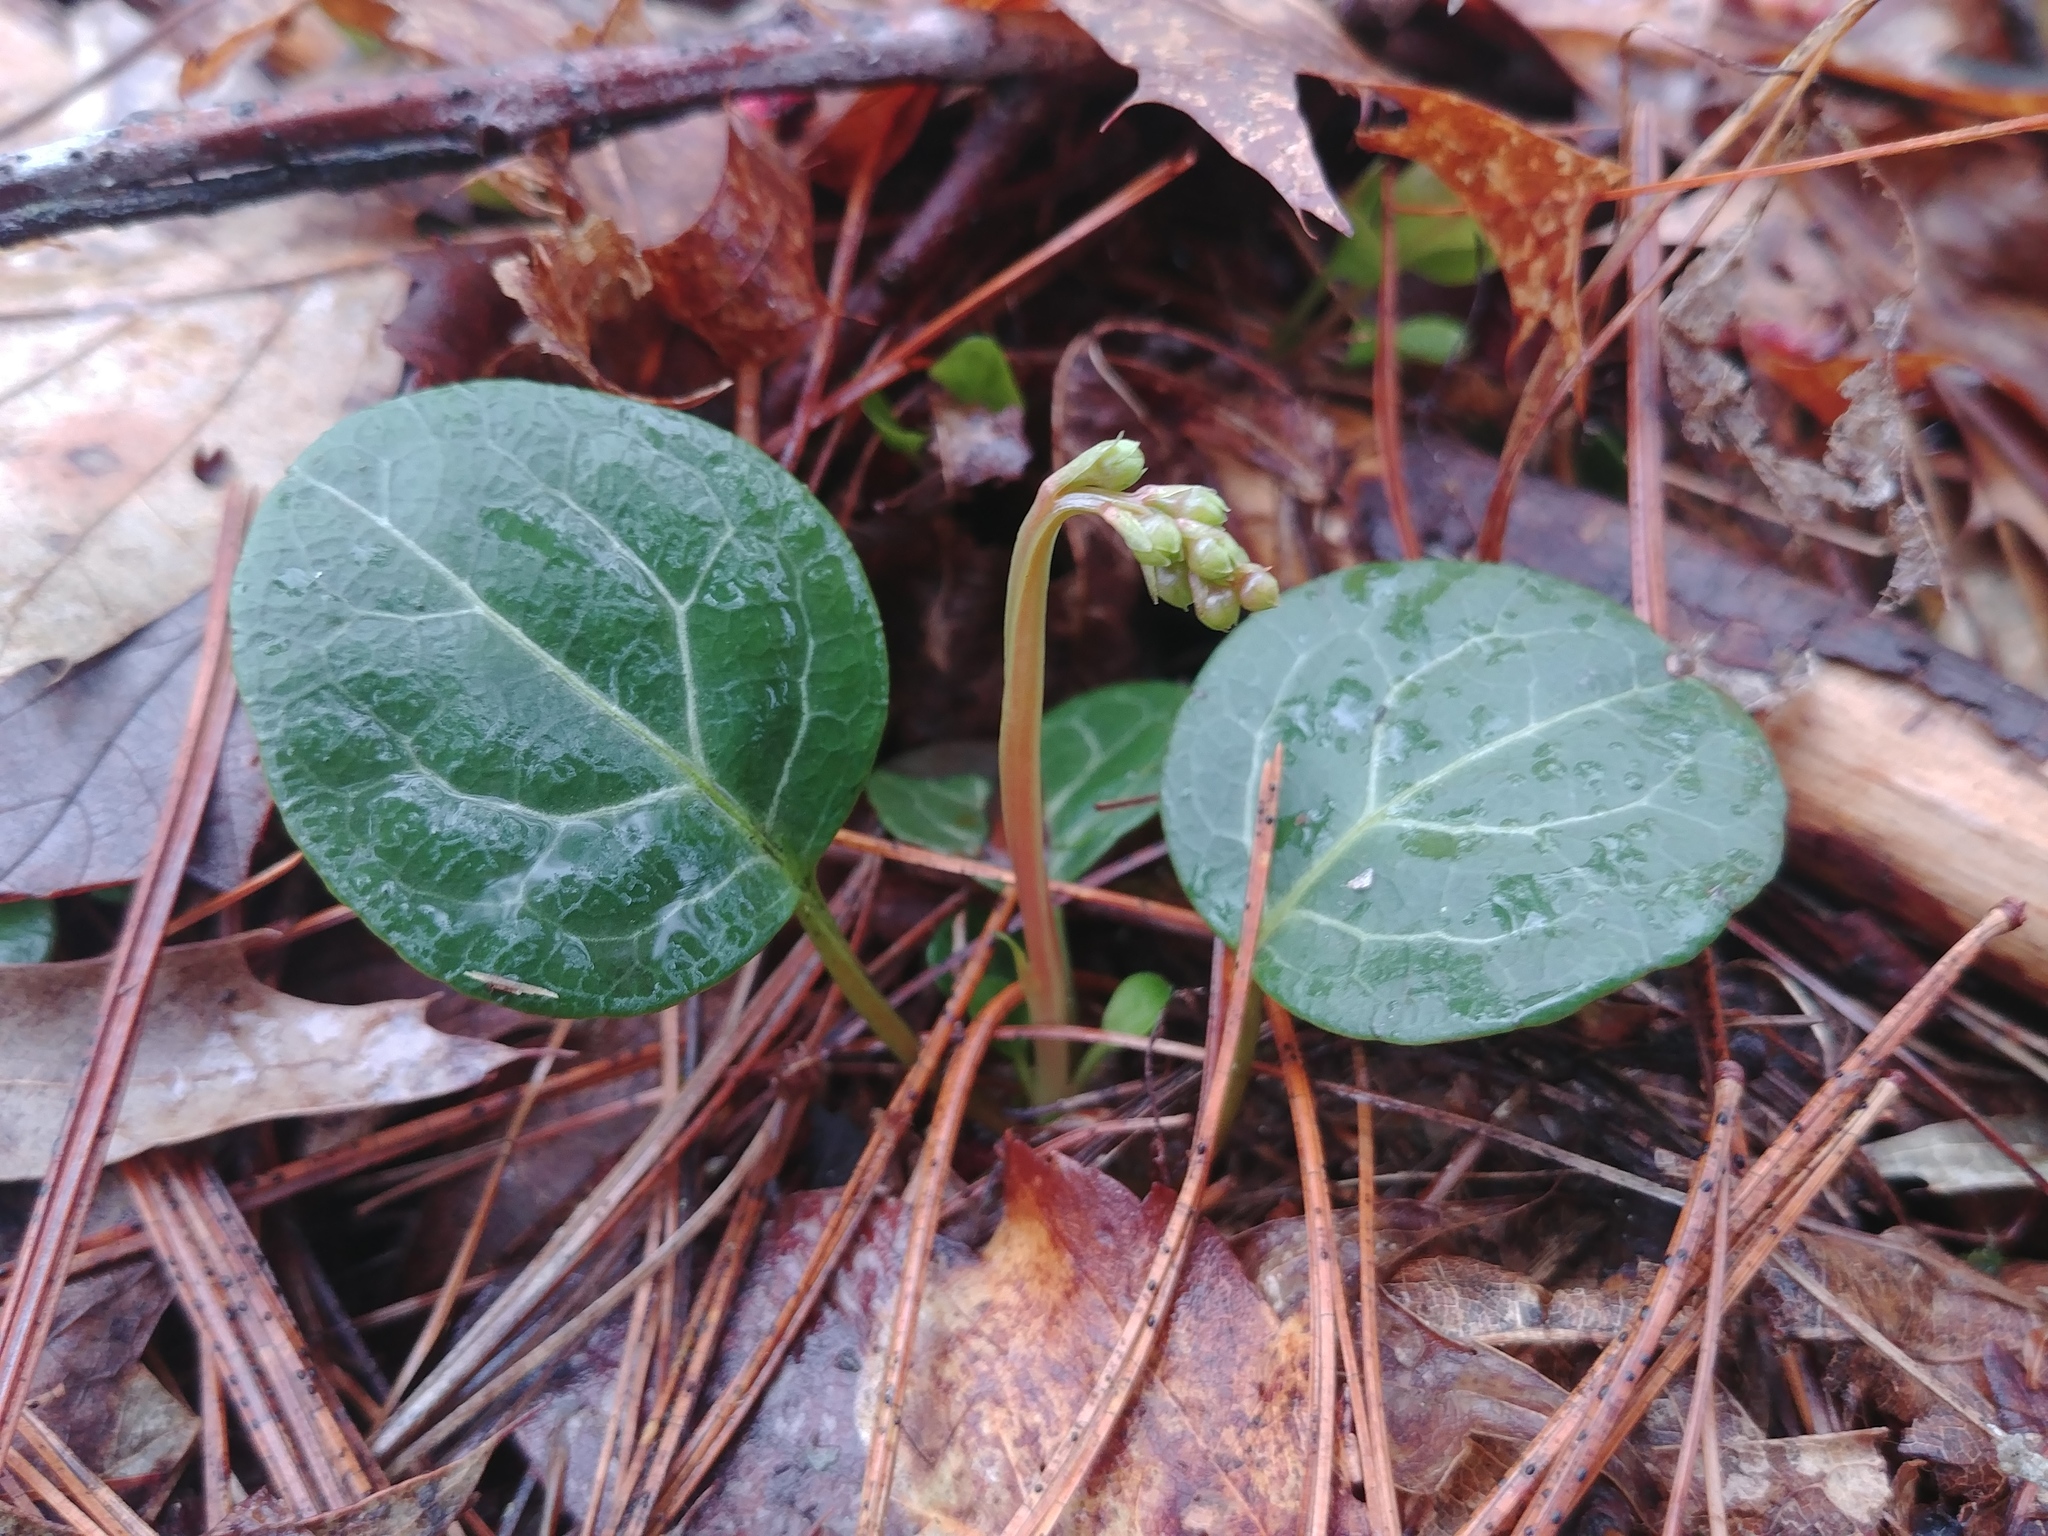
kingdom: Plantae
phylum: Tracheophyta
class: Magnoliopsida
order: Ericales
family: Ericaceae
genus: Pyrola
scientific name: Pyrola americana
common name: American wintergreen
